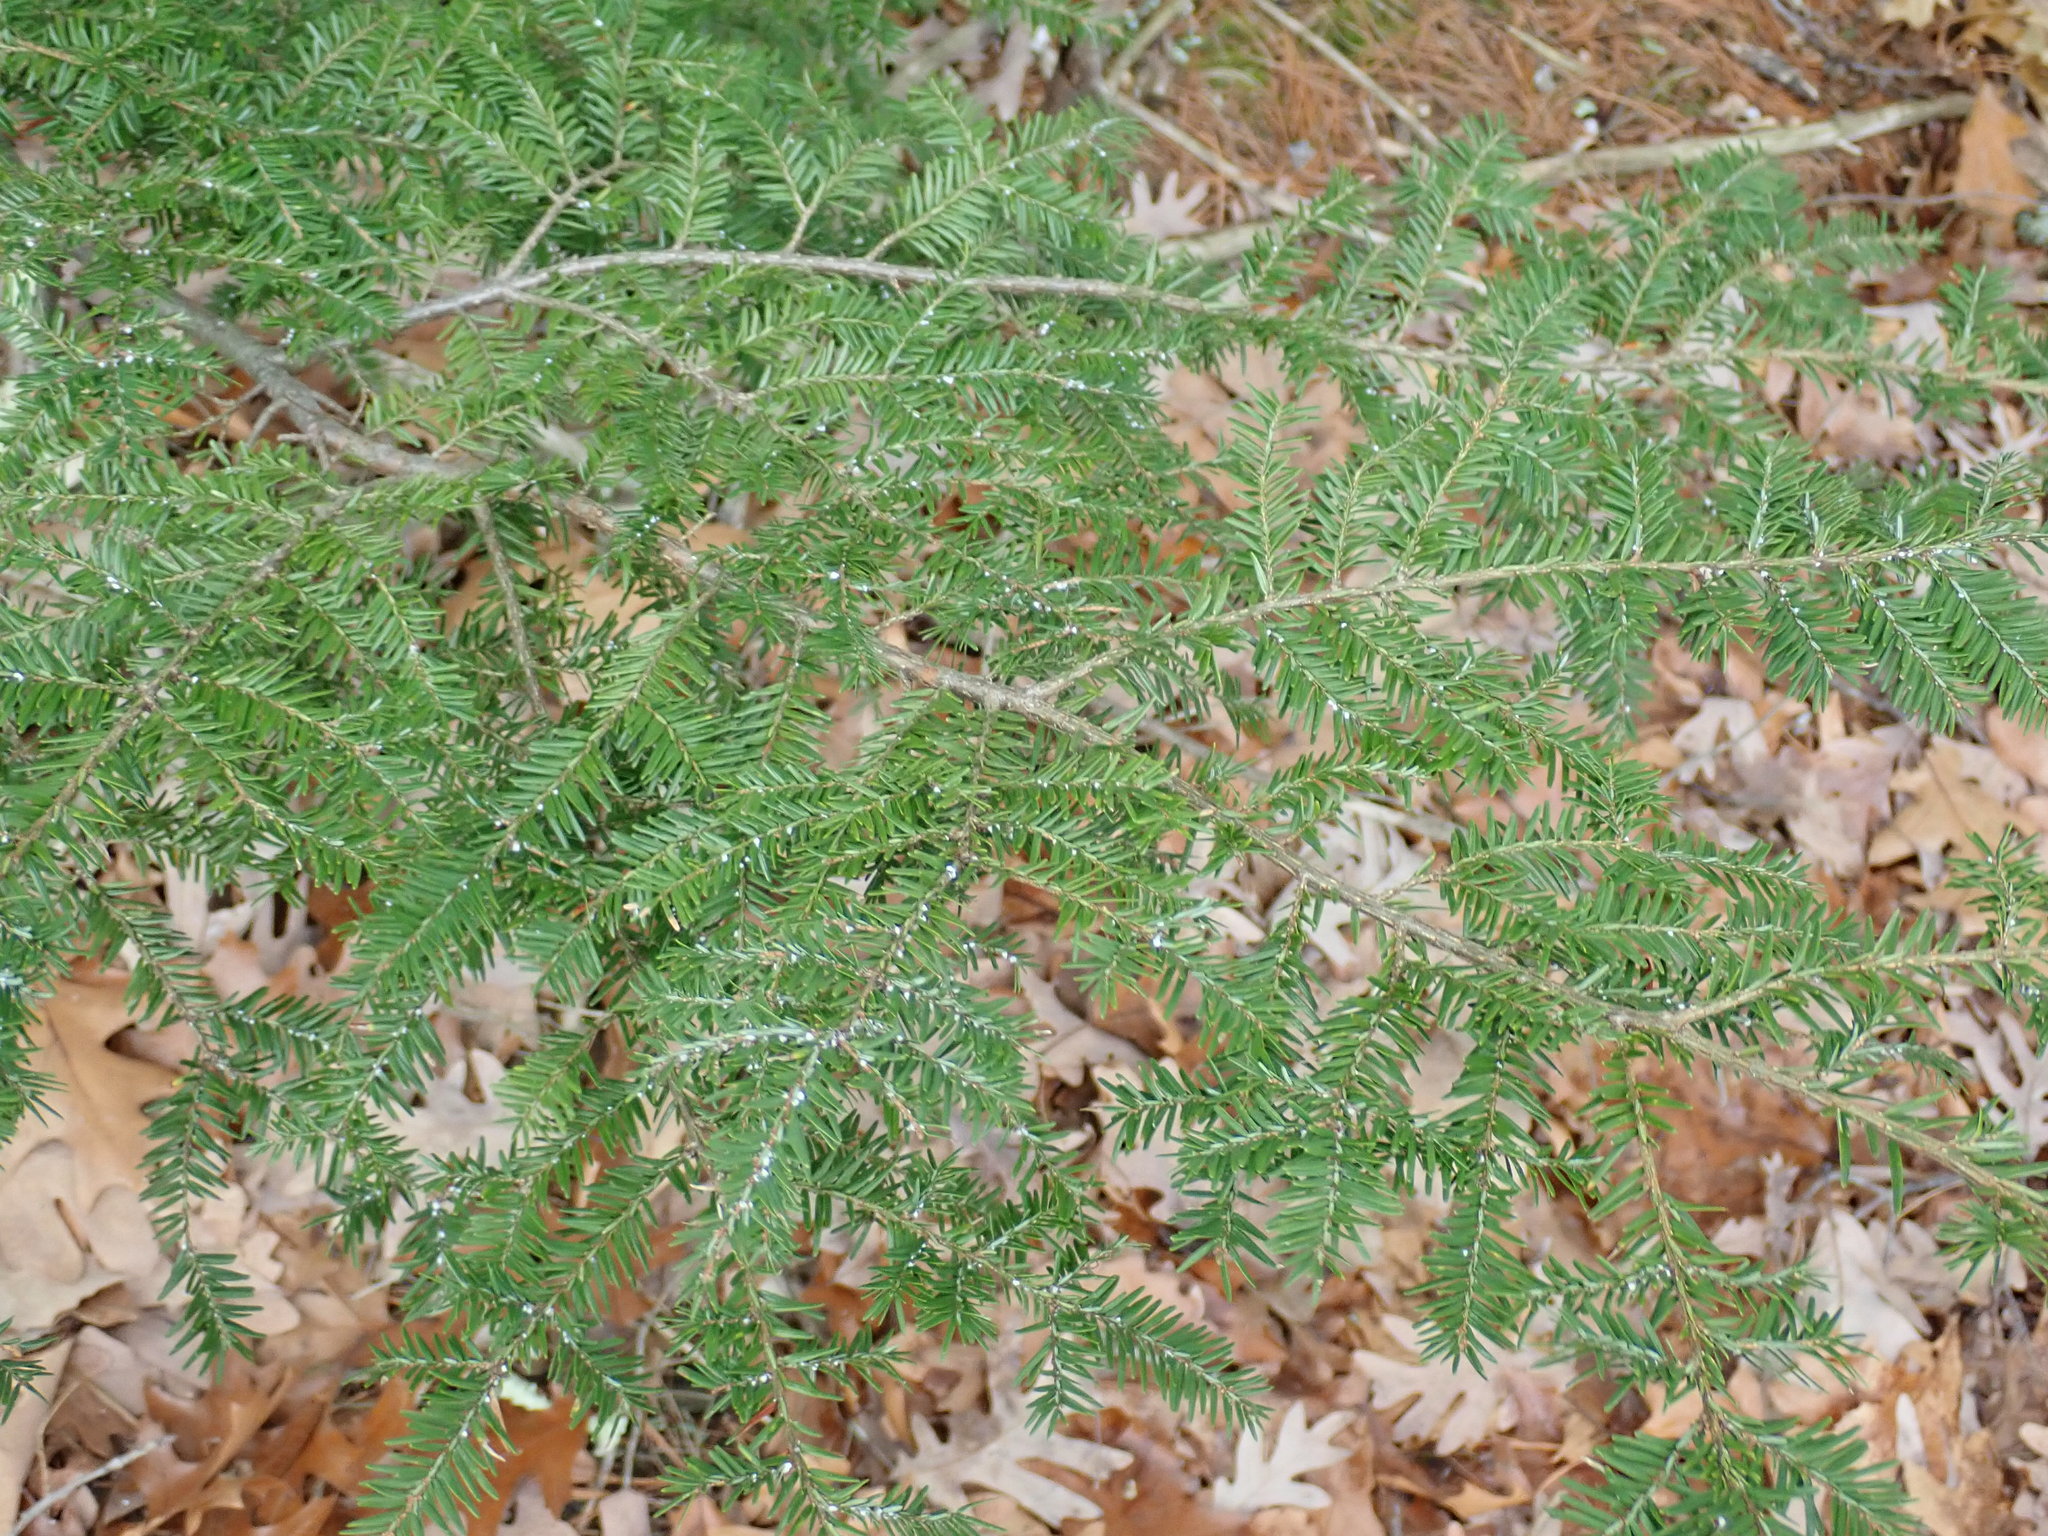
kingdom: Plantae
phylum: Tracheophyta
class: Pinopsida
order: Pinales
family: Pinaceae
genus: Tsuga
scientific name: Tsuga canadensis
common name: Eastern hemlock
